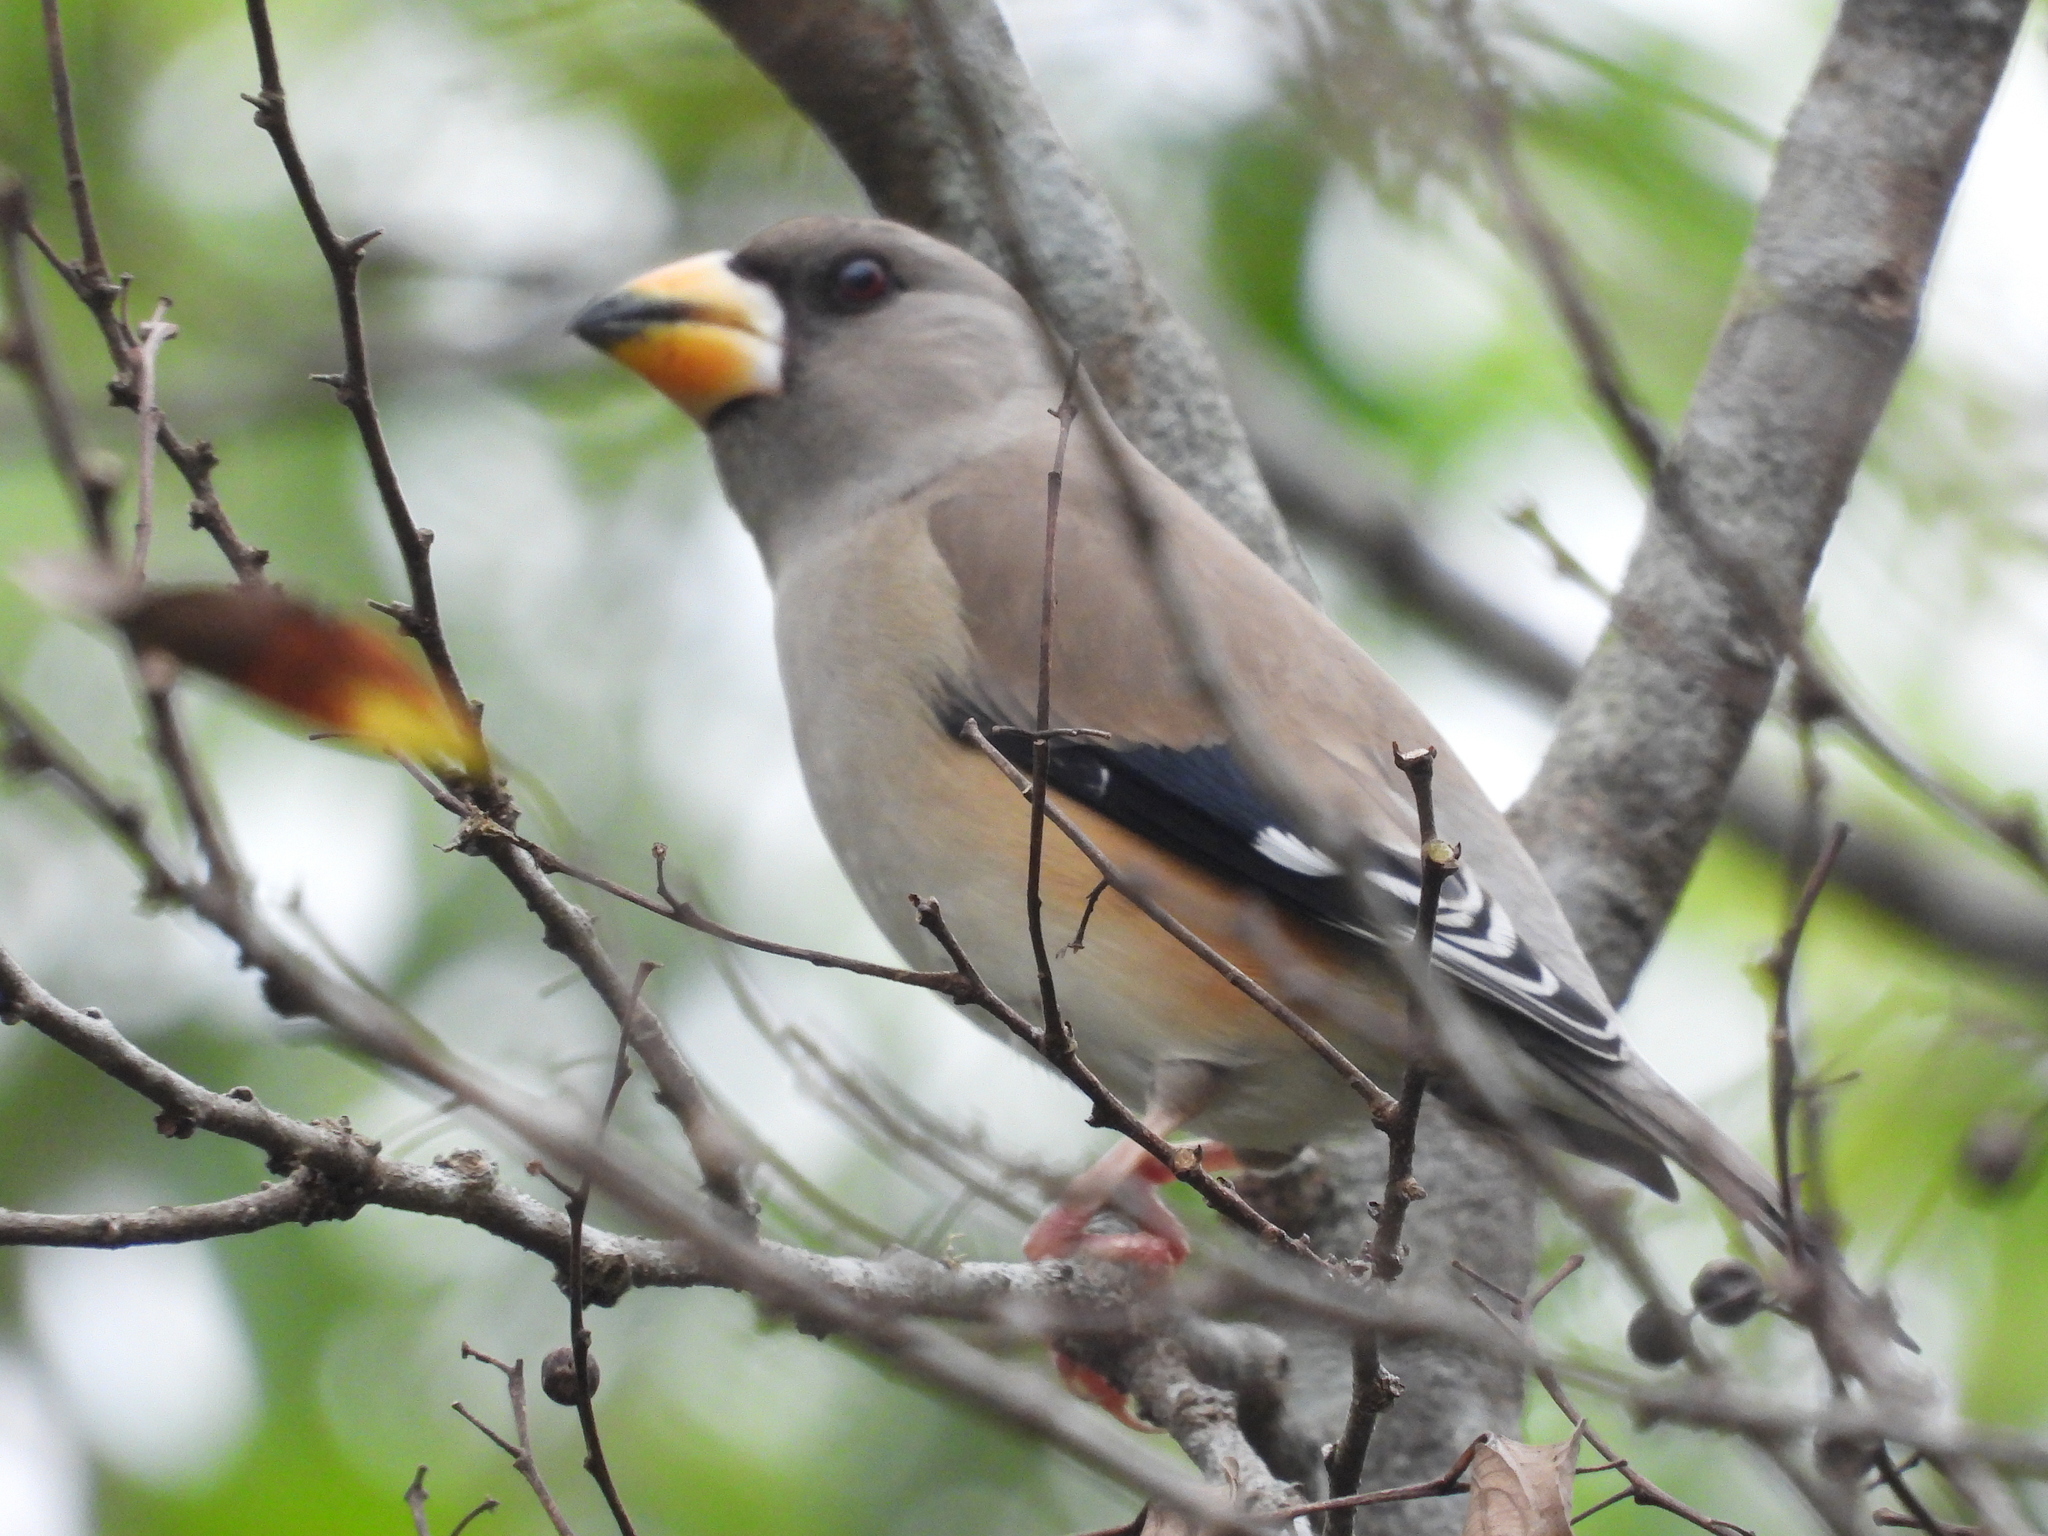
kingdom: Animalia
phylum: Chordata
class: Aves
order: Passeriformes
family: Fringillidae
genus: Eophona
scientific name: Eophona migratoria
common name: Yellow-billed grosbeak
